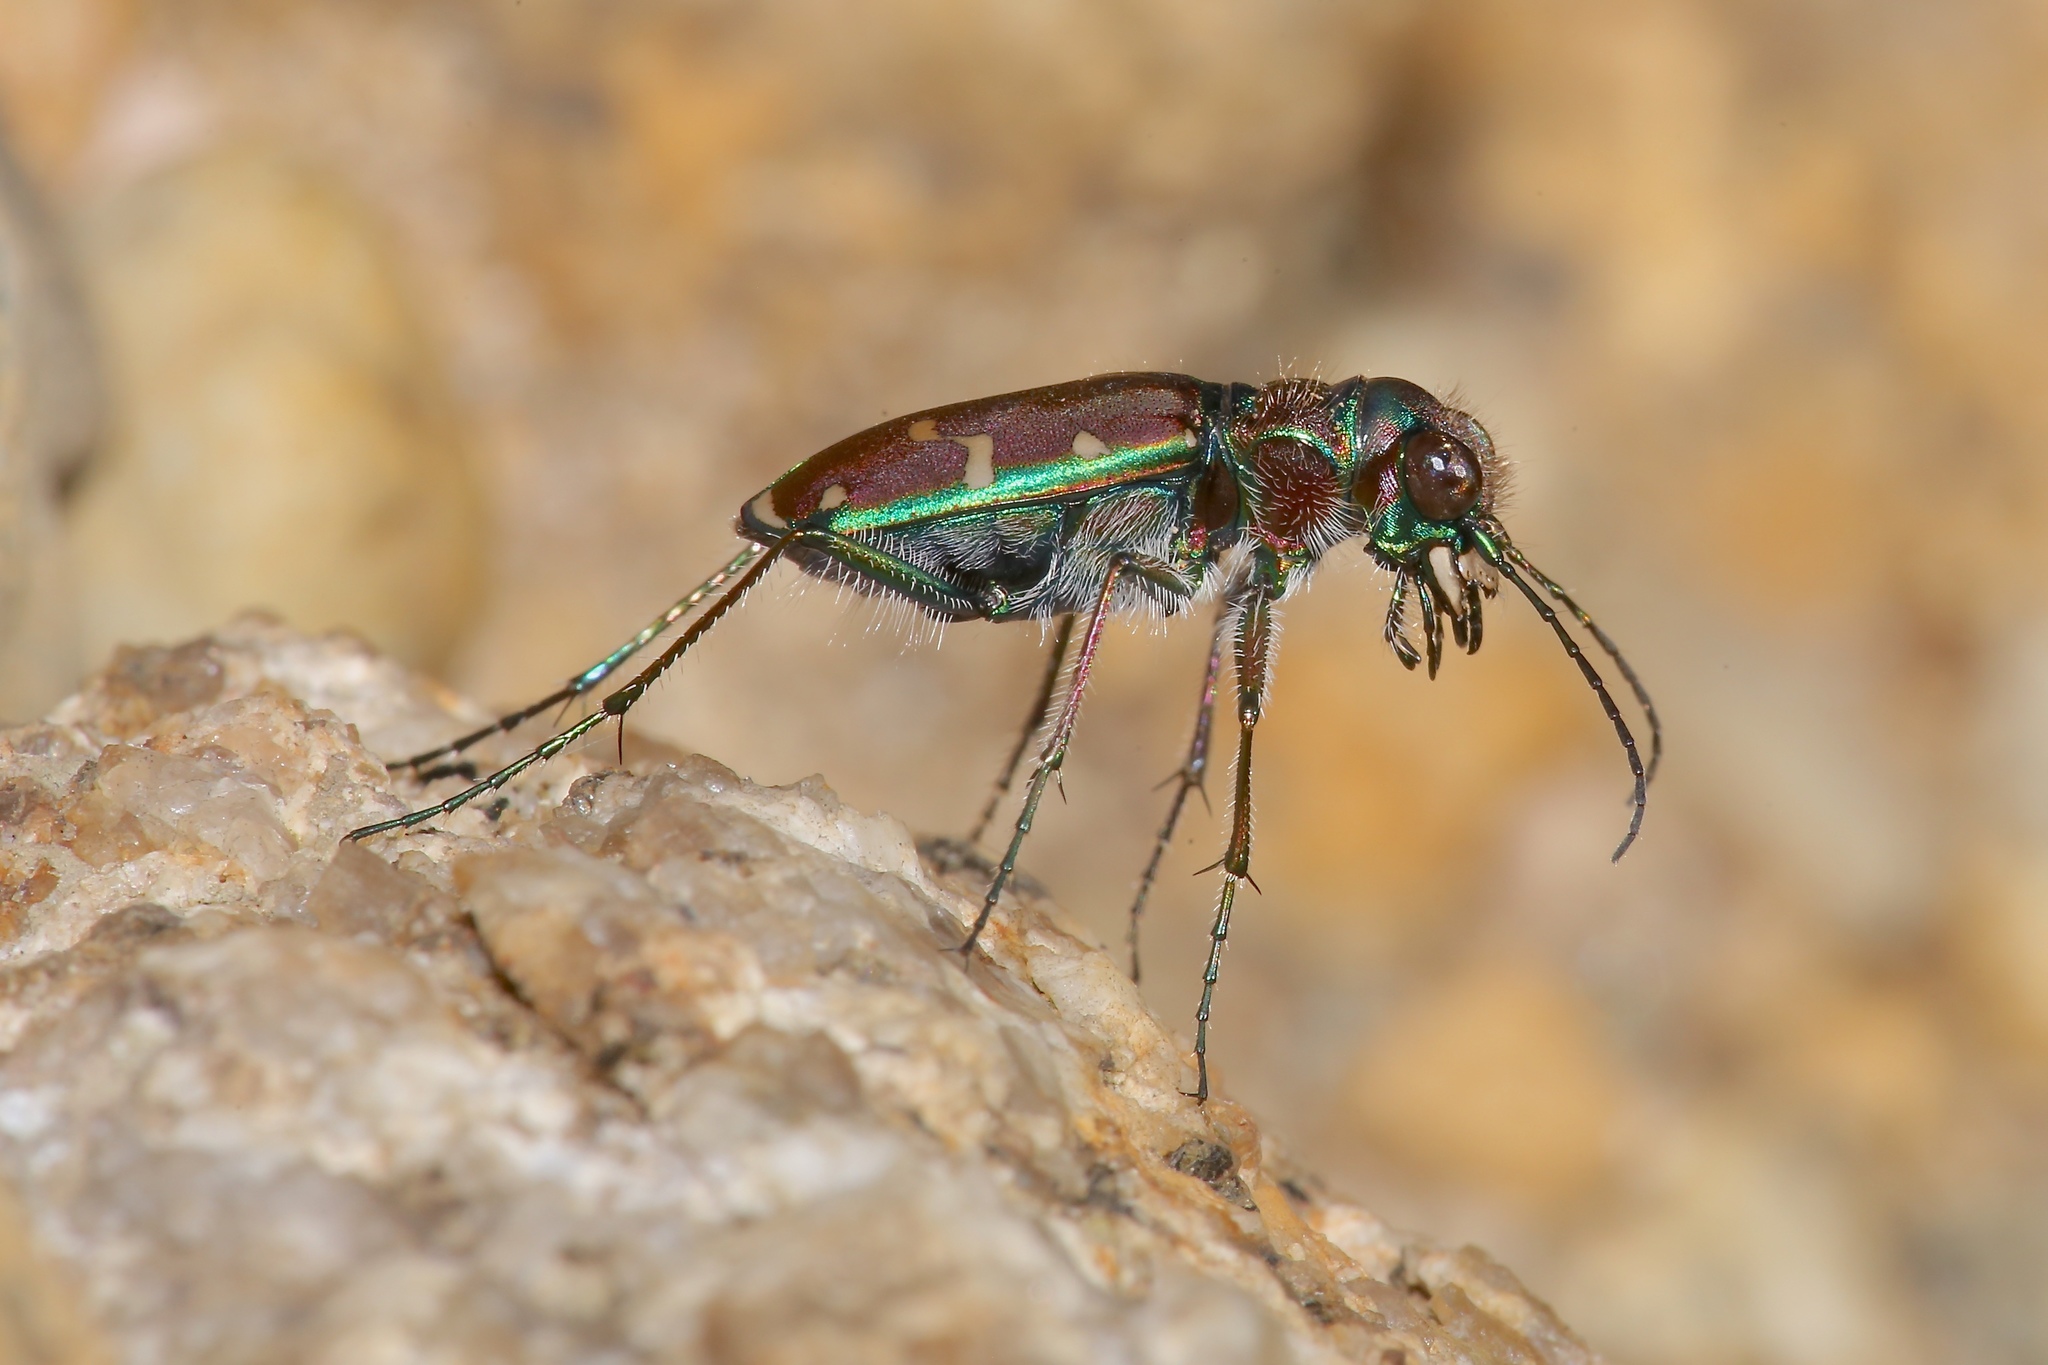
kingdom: Animalia
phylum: Arthropoda
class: Insecta
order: Coleoptera
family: Carabidae
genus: Cicindela
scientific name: Cicindela limbalis
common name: Common claybank tiger beetle
